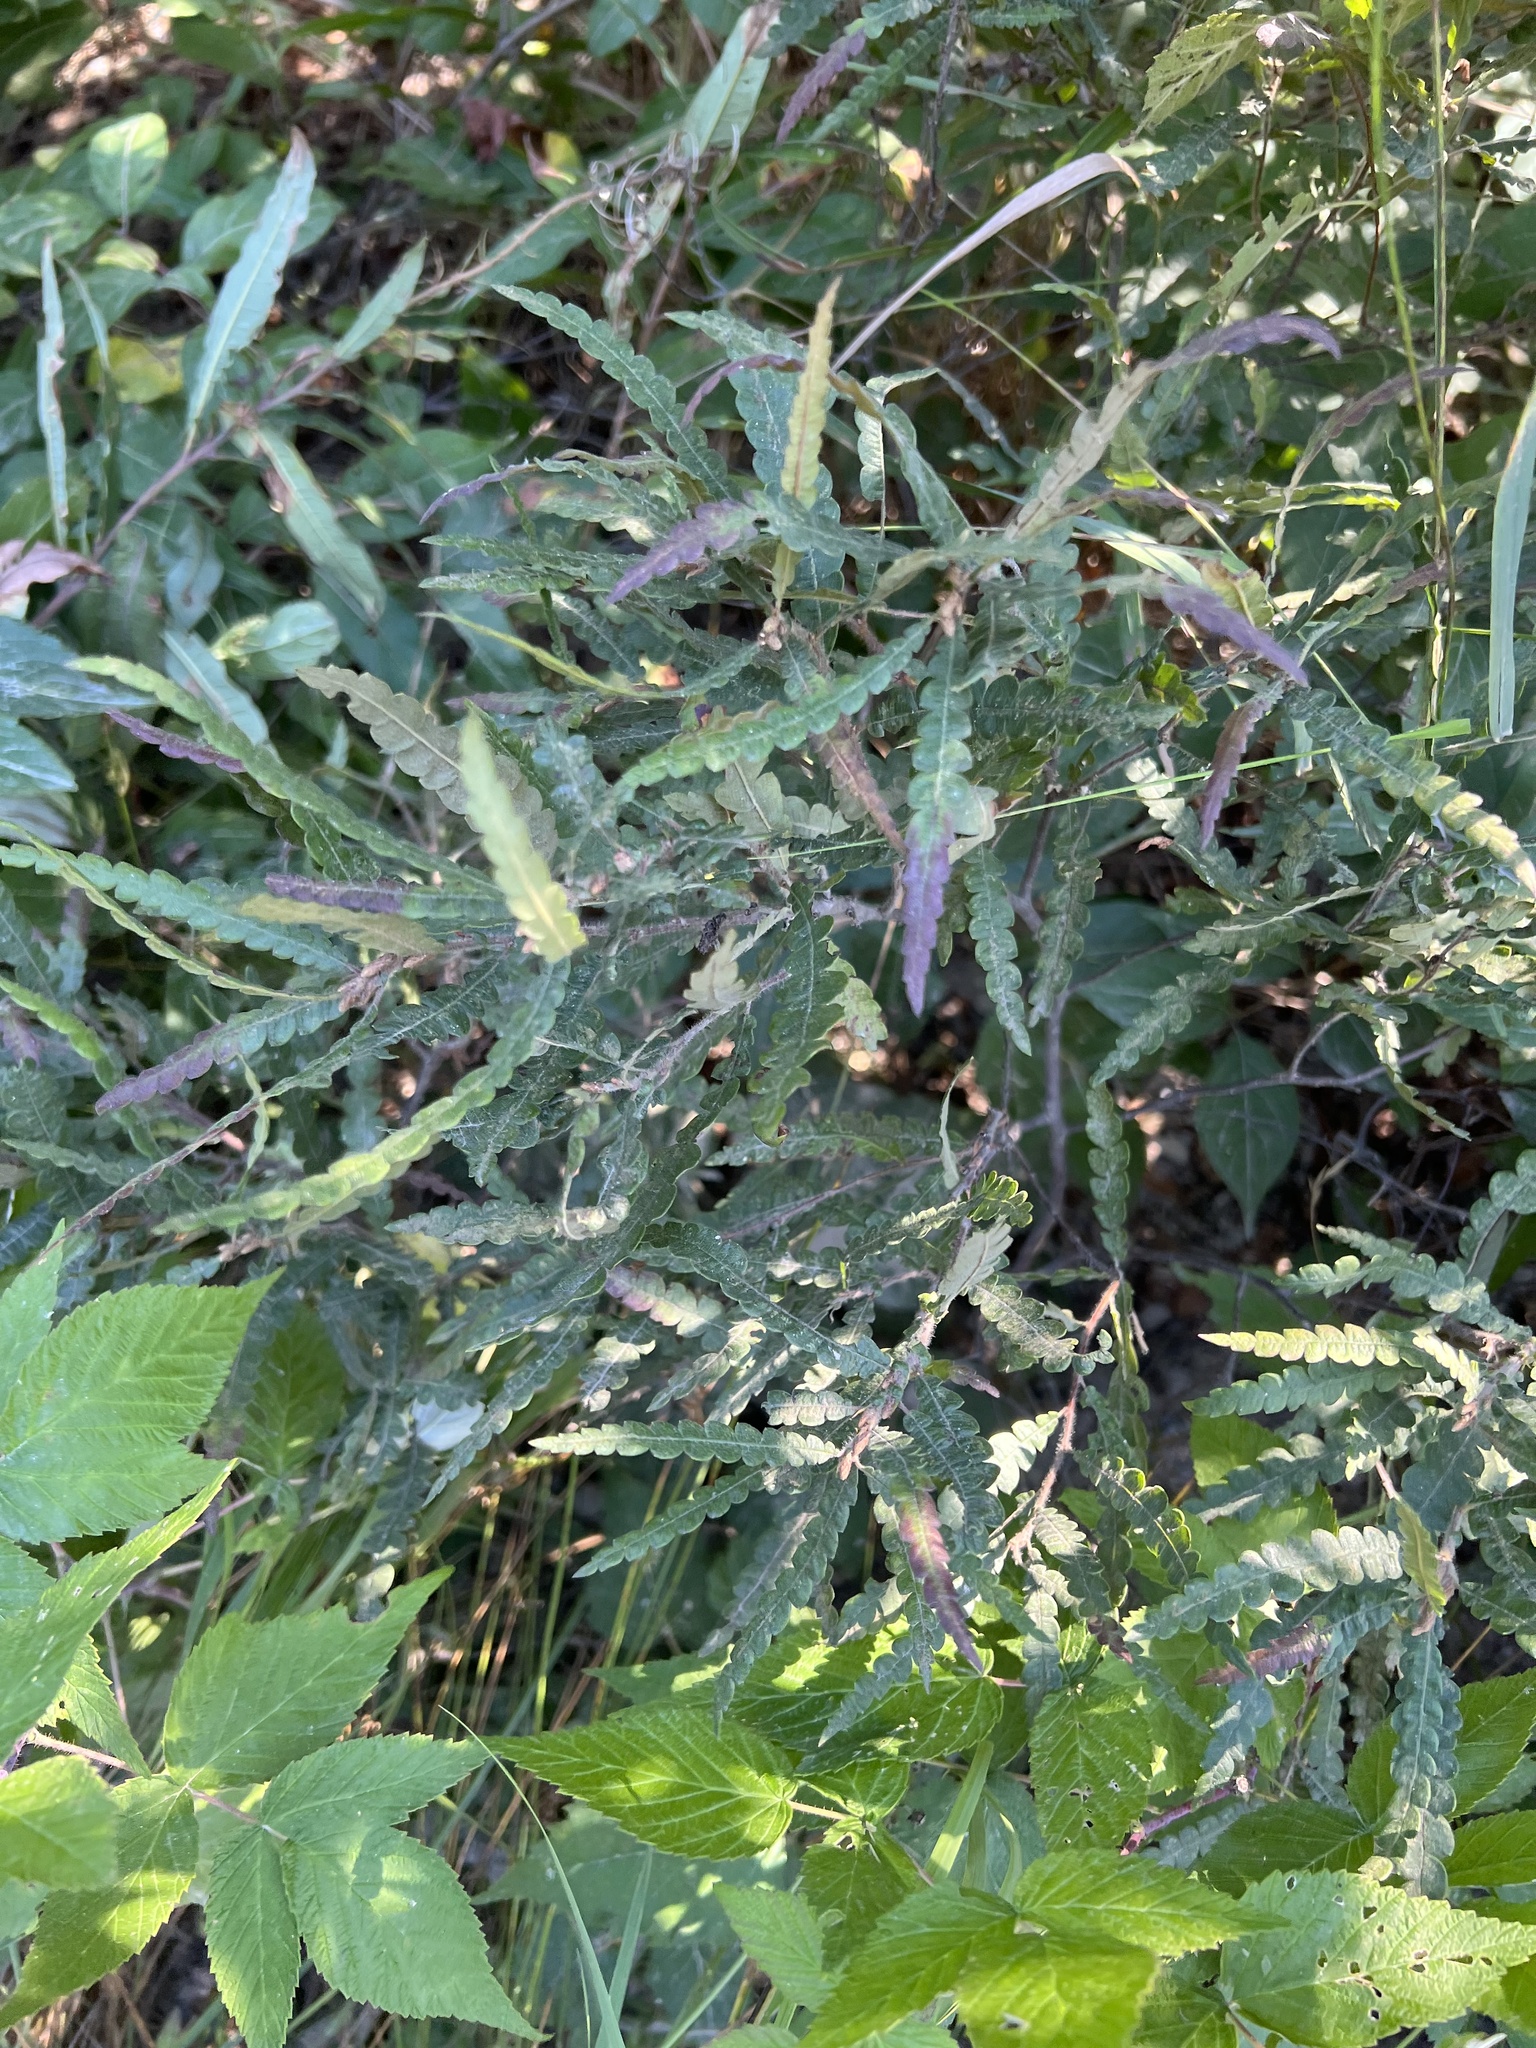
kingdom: Plantae
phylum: Tracheophyta
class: Magnoliopsida
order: Fagales
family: Myricaceae
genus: Comptonia
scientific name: Comptonia peregrina
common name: Sweet-fern
